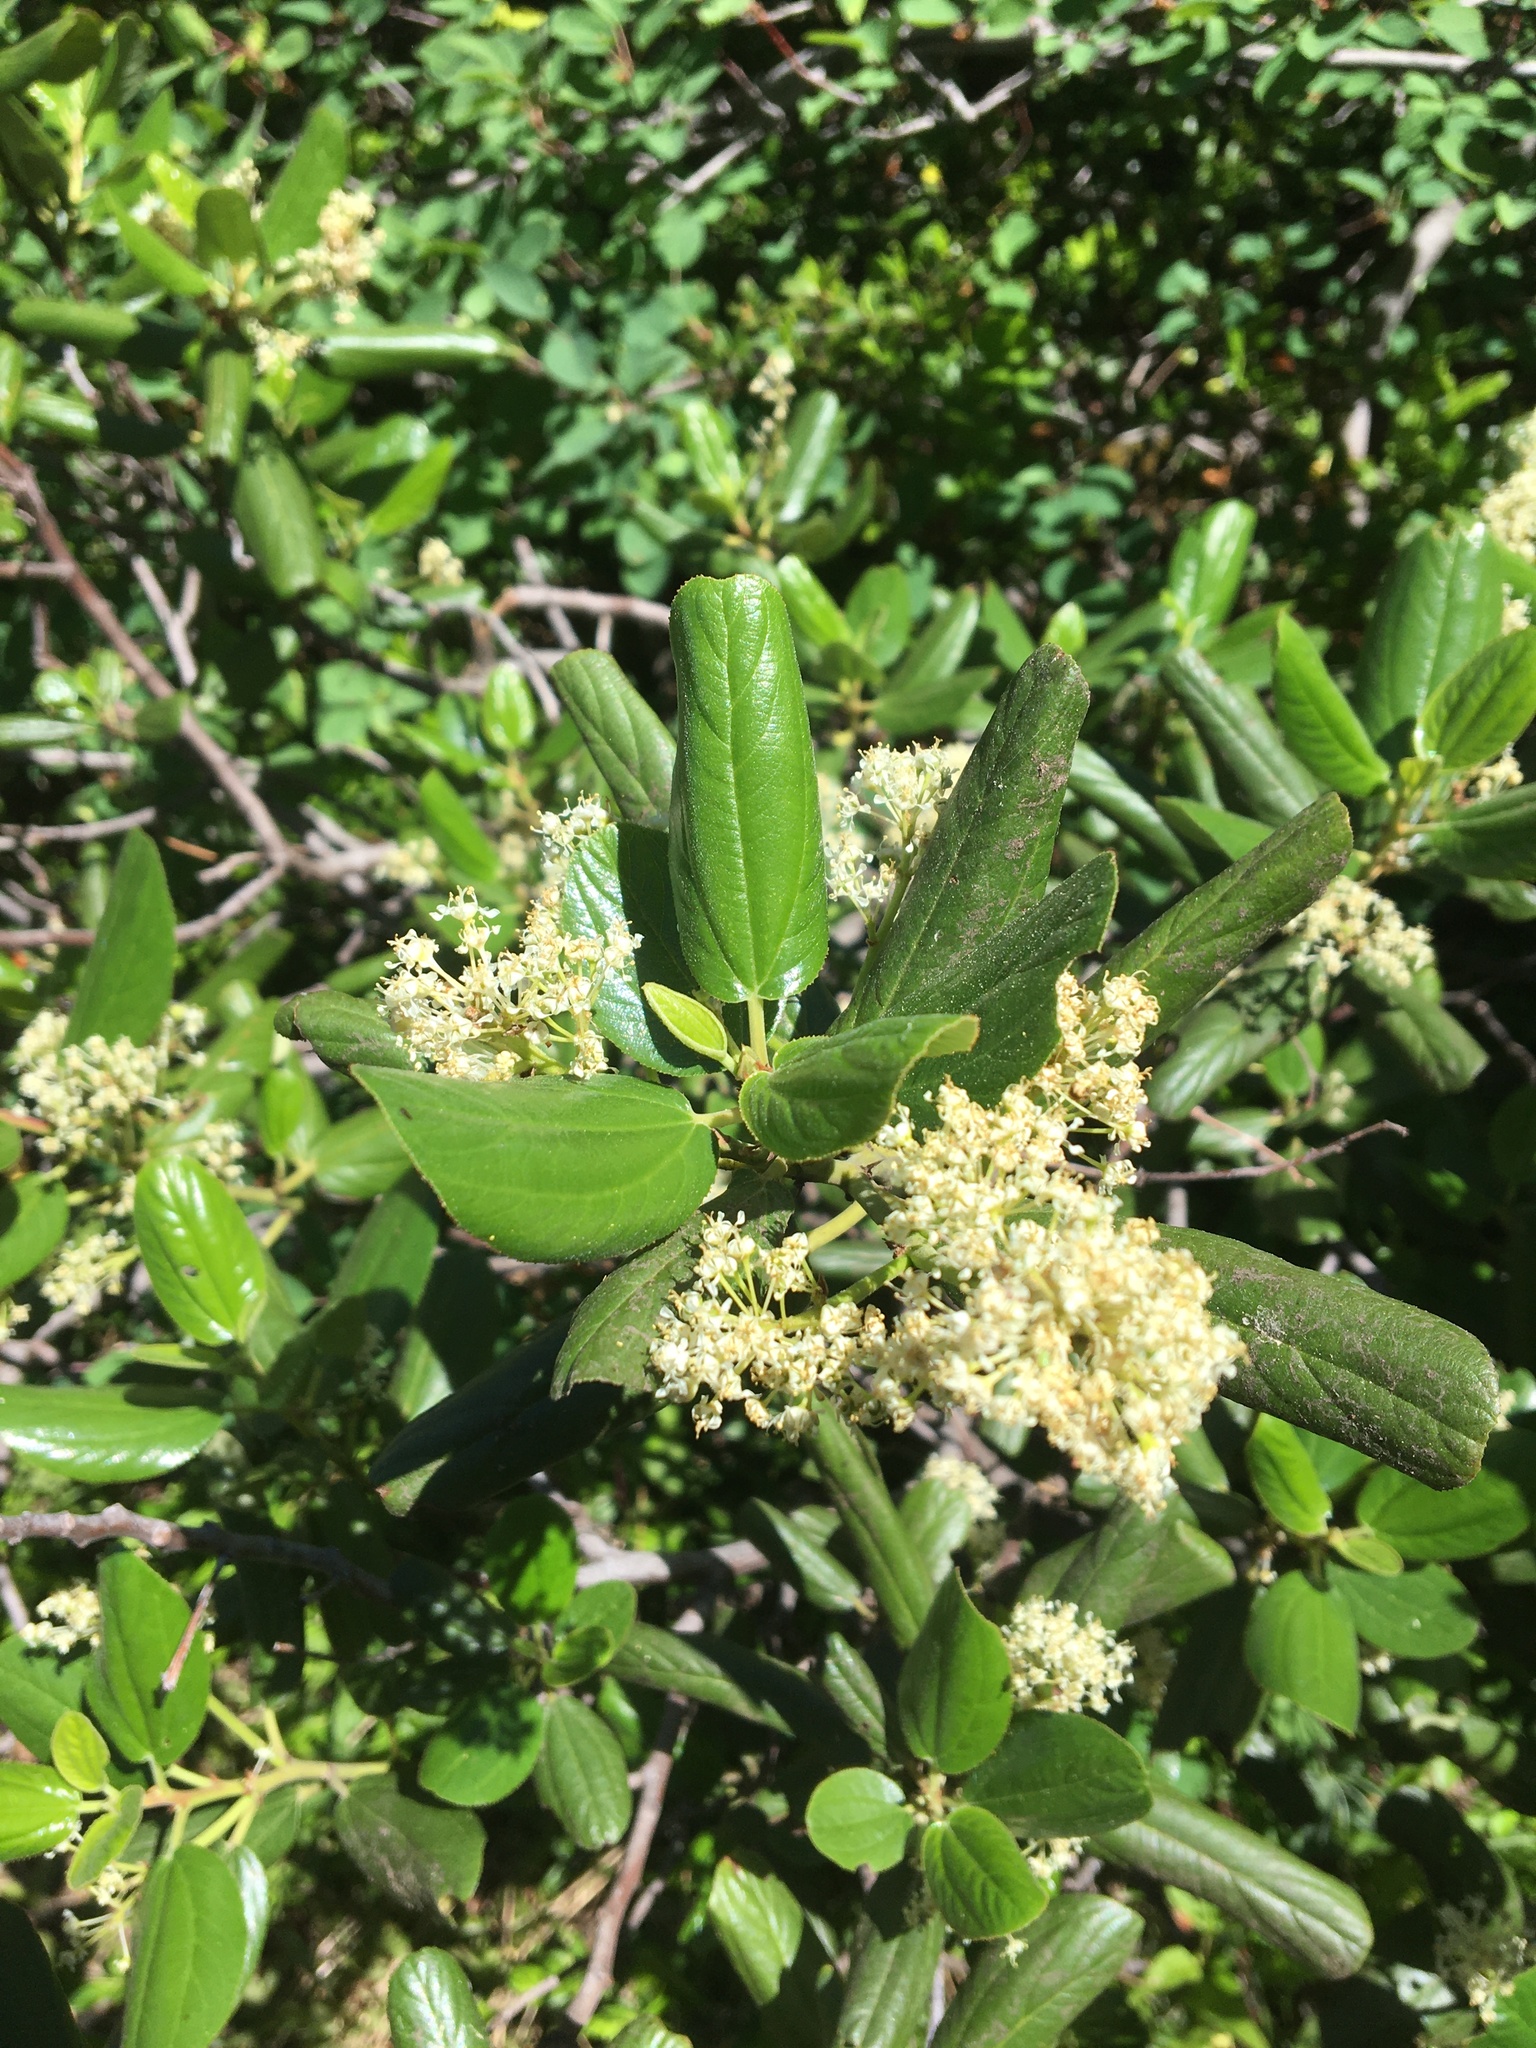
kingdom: Plantae
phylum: Tracheophyta
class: Magnoliopsida
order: Rosales
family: Rhamnaceae
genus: Ceanothus
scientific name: Ceanothus velutinus
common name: Snowbrush
